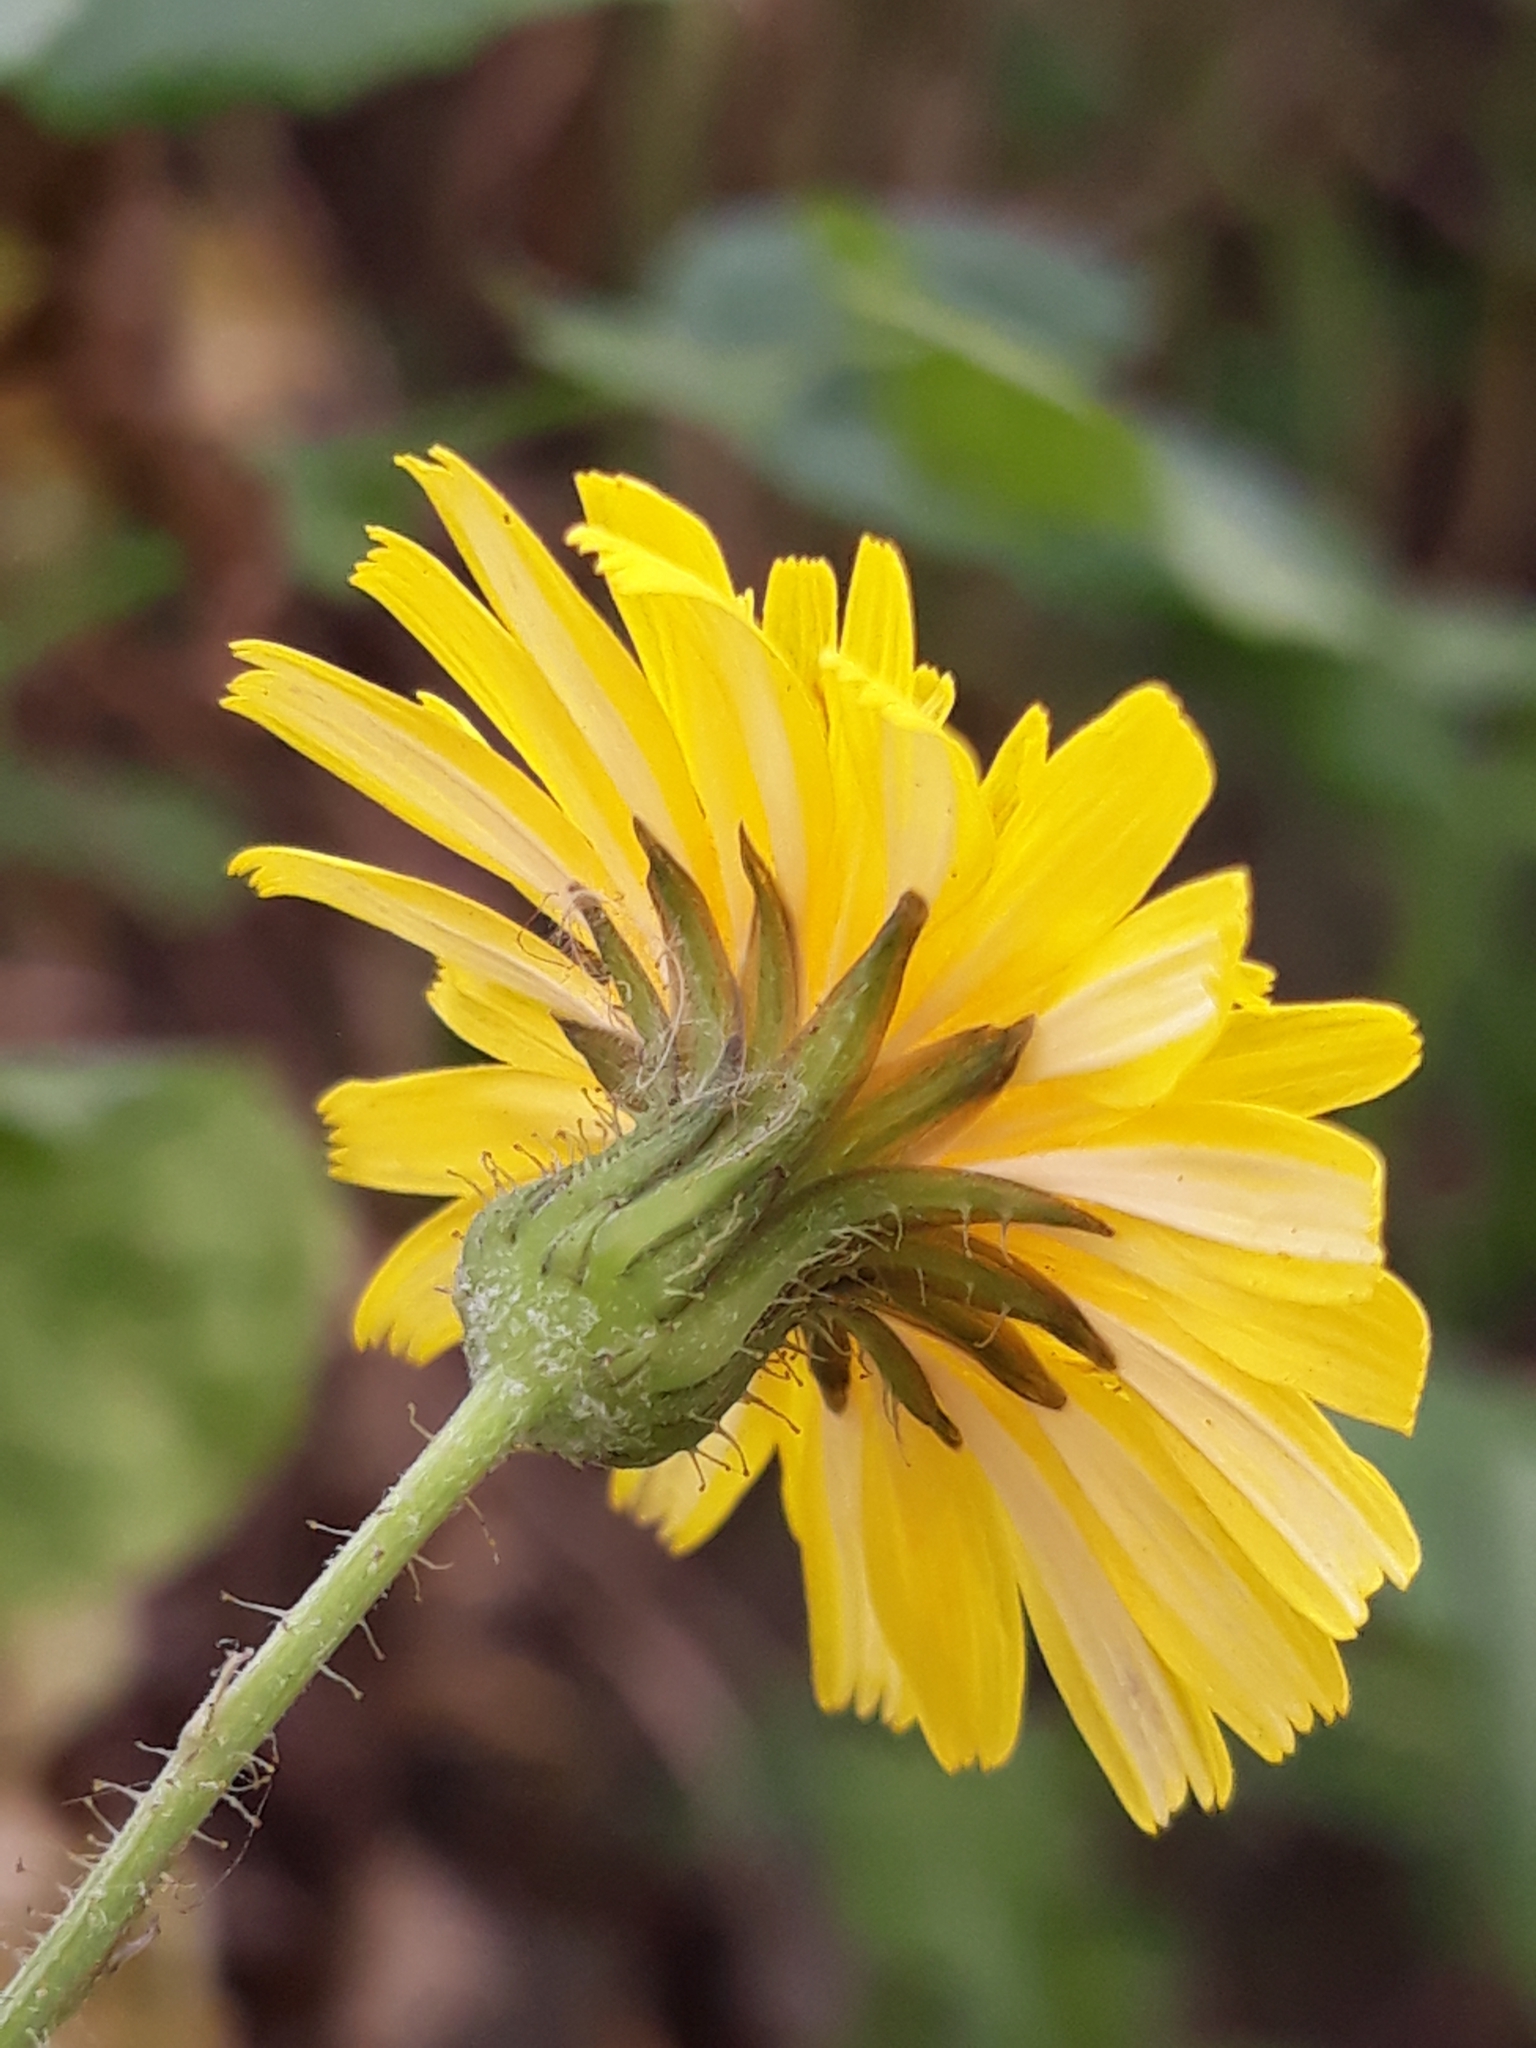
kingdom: Plantae
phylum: Tracheophyta
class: Magnoliopsida
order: Asterales
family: Asteraceae
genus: Sonchus
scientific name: Sonchus tenerrimus
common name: Clammy sowthistle
